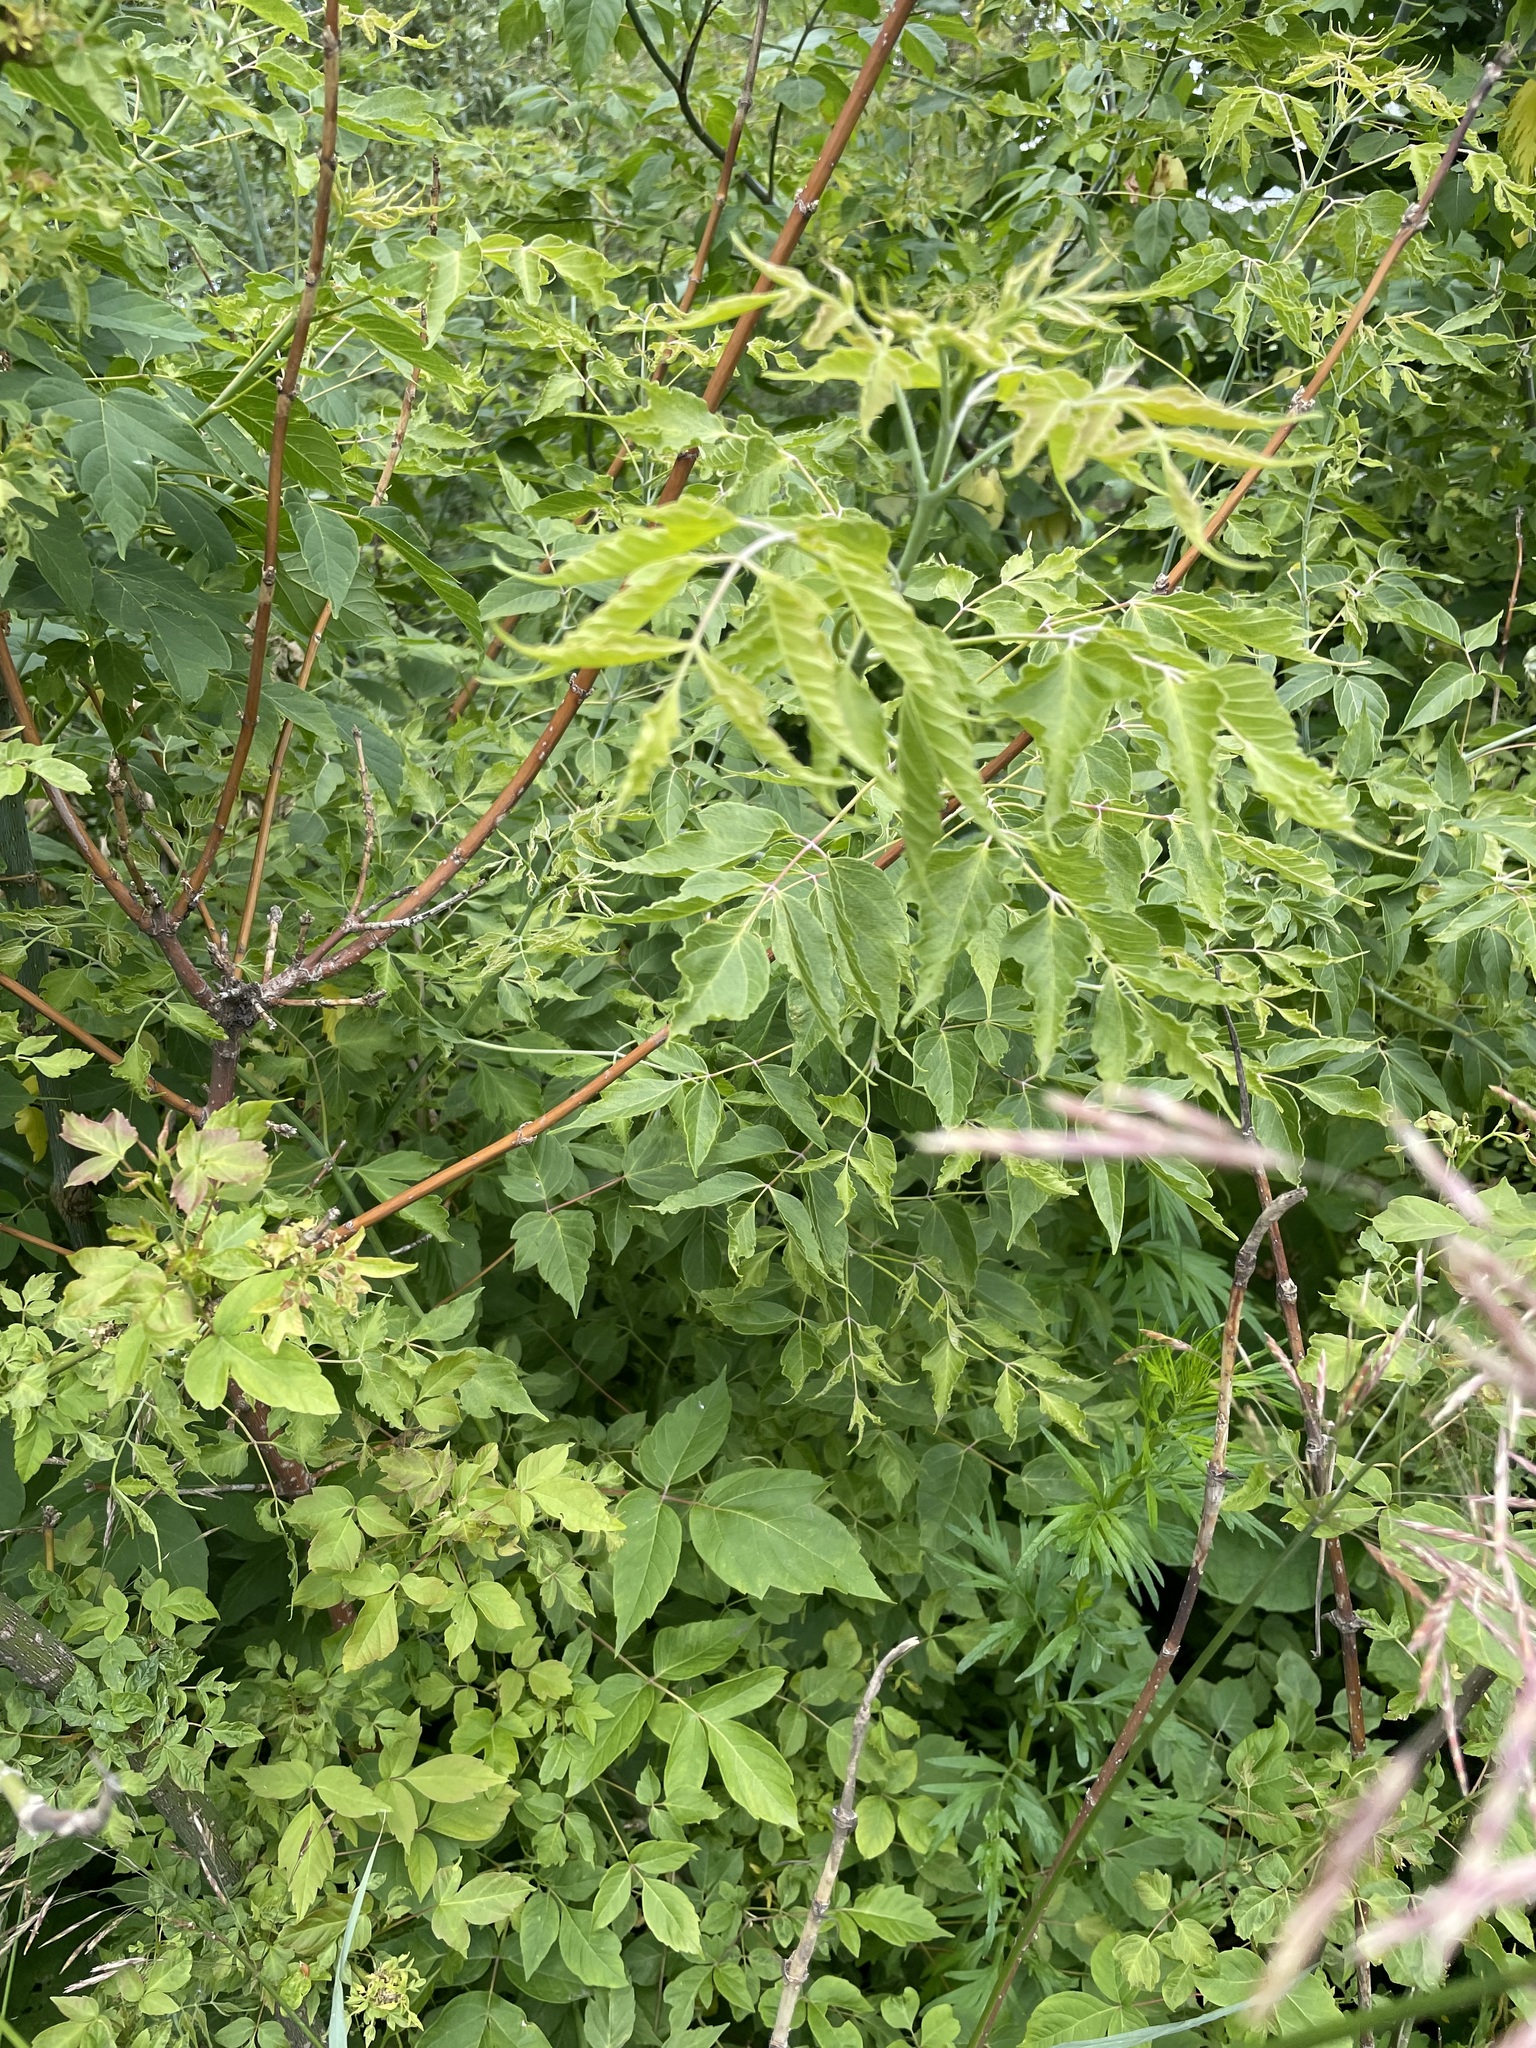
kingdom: Plantae
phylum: Tracheophyta
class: Magnoliopsida
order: Sapindales
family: Sapindaceae
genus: Acer
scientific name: Acer negundo
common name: Ashleaf maple
